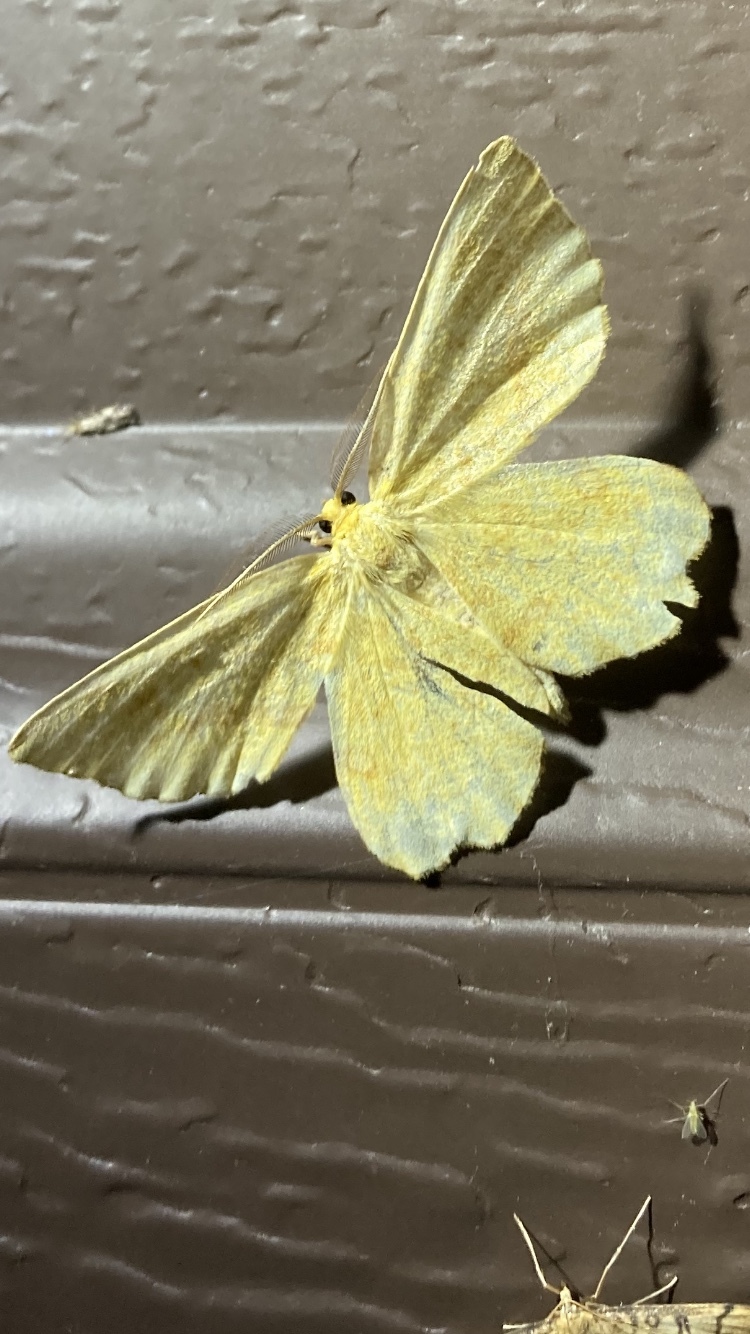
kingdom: Animalia
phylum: Arthropoda
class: Insecta
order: Lepidoptera
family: Geometridae
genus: Xanthotype
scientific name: Xanthotype
